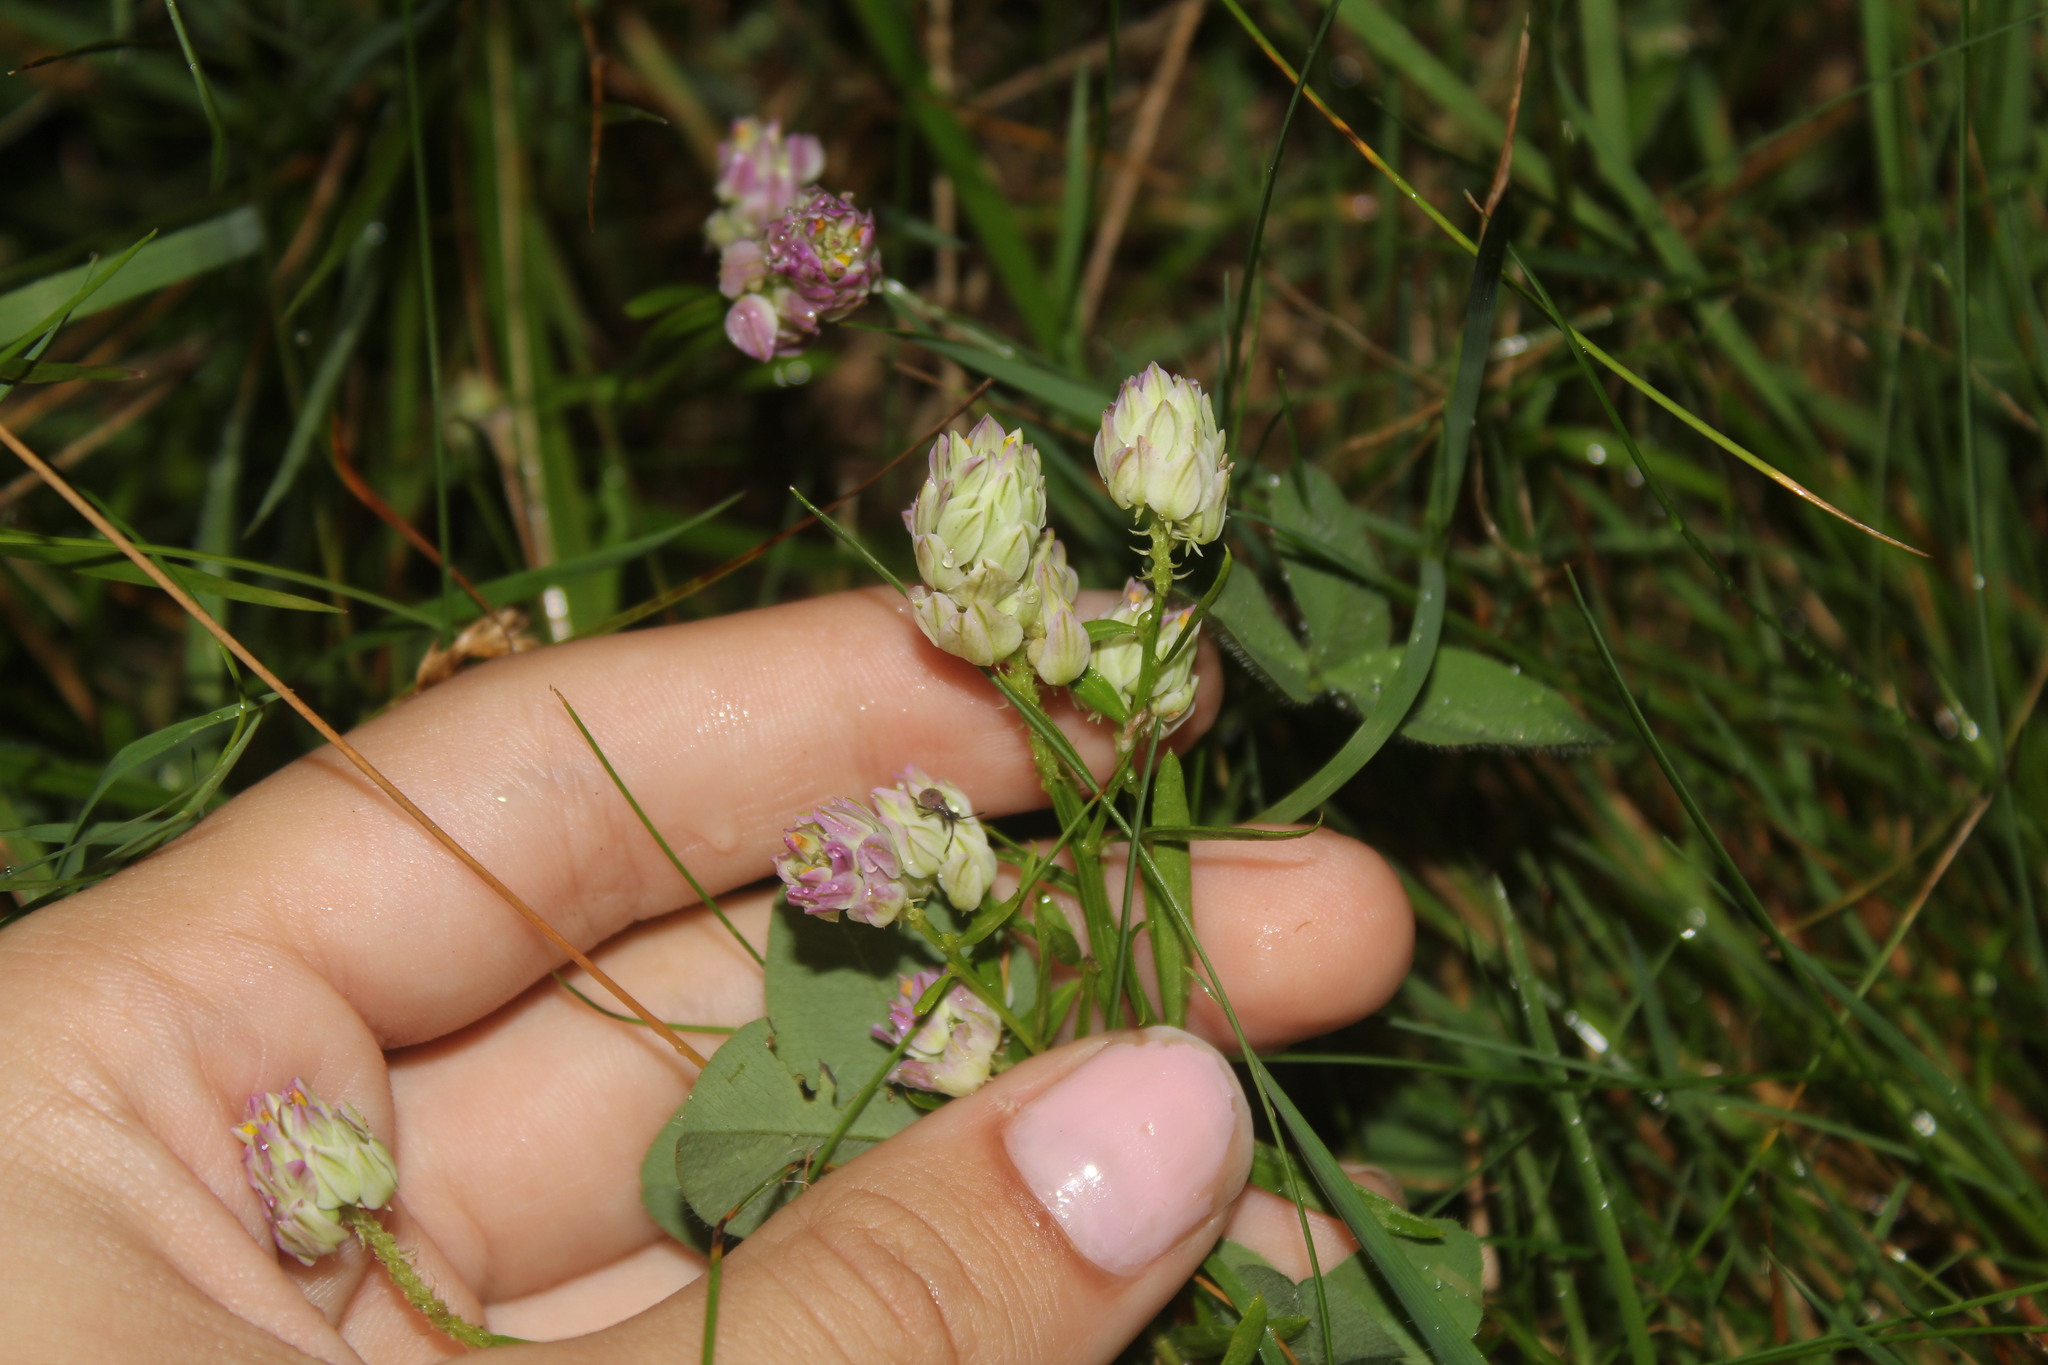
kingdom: Plantae
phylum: Tracheophyta
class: Magnoliopsida
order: Fabales
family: Polygalaceae
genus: Polygala
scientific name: Polygala sanguinea
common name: Blood milkwort
